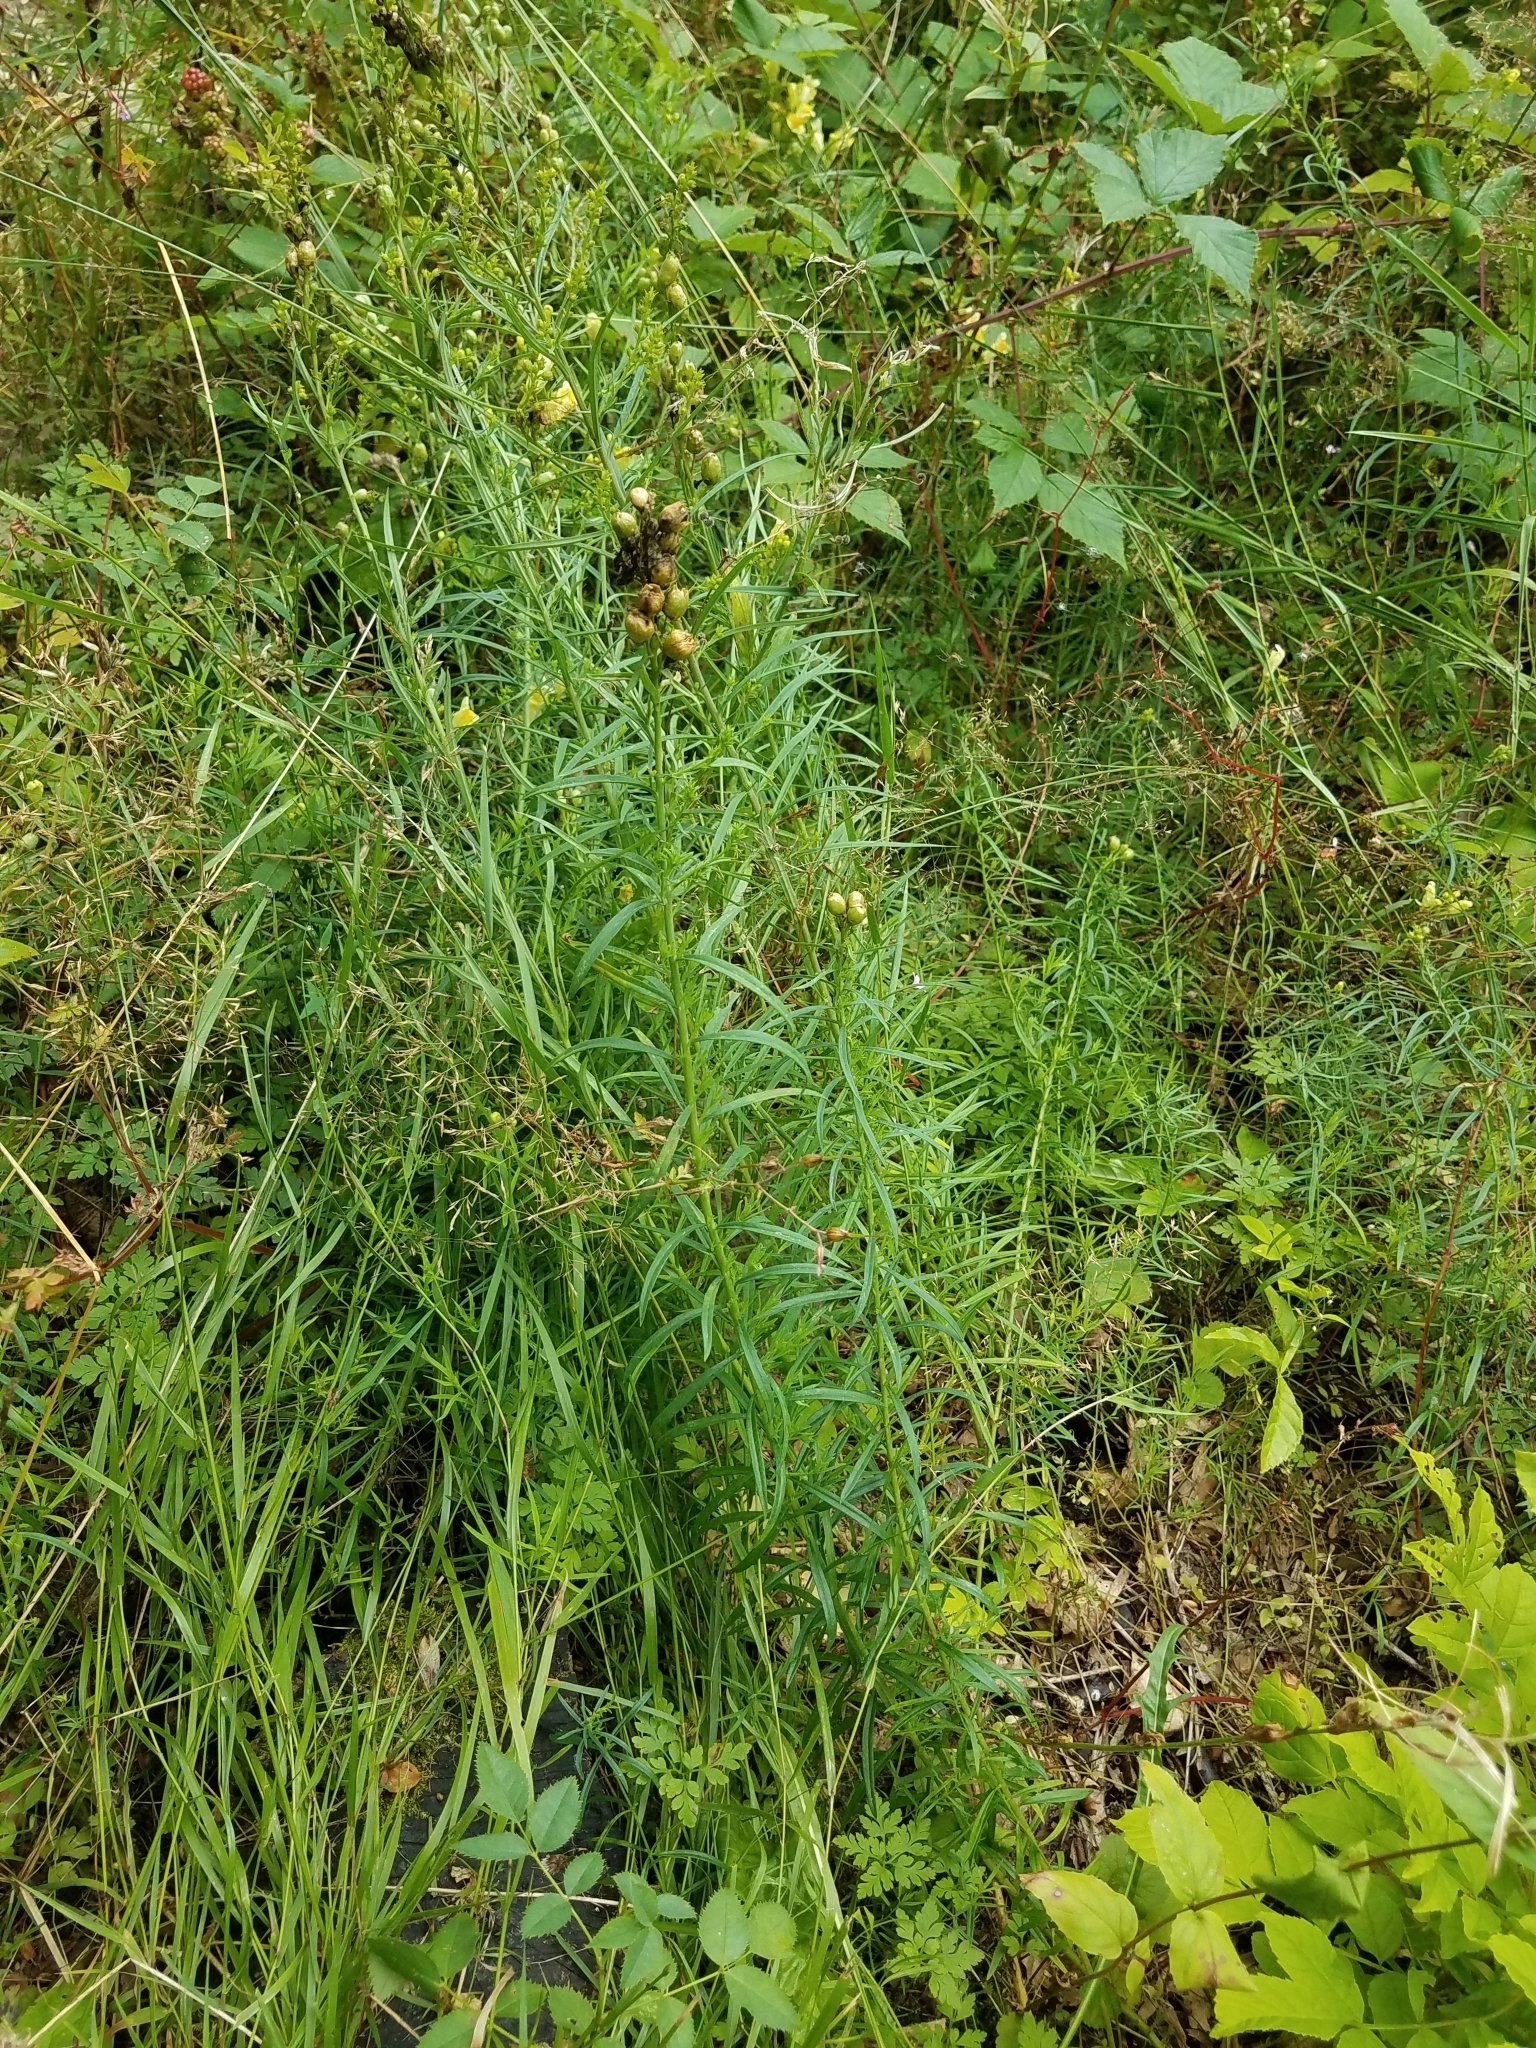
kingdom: Plantae
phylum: Tracheophyta
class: Magnoliopsida
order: Lamiales
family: Plantaginaceae
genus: Linaria
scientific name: Linaria vulgaris
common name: Butter and eggs
